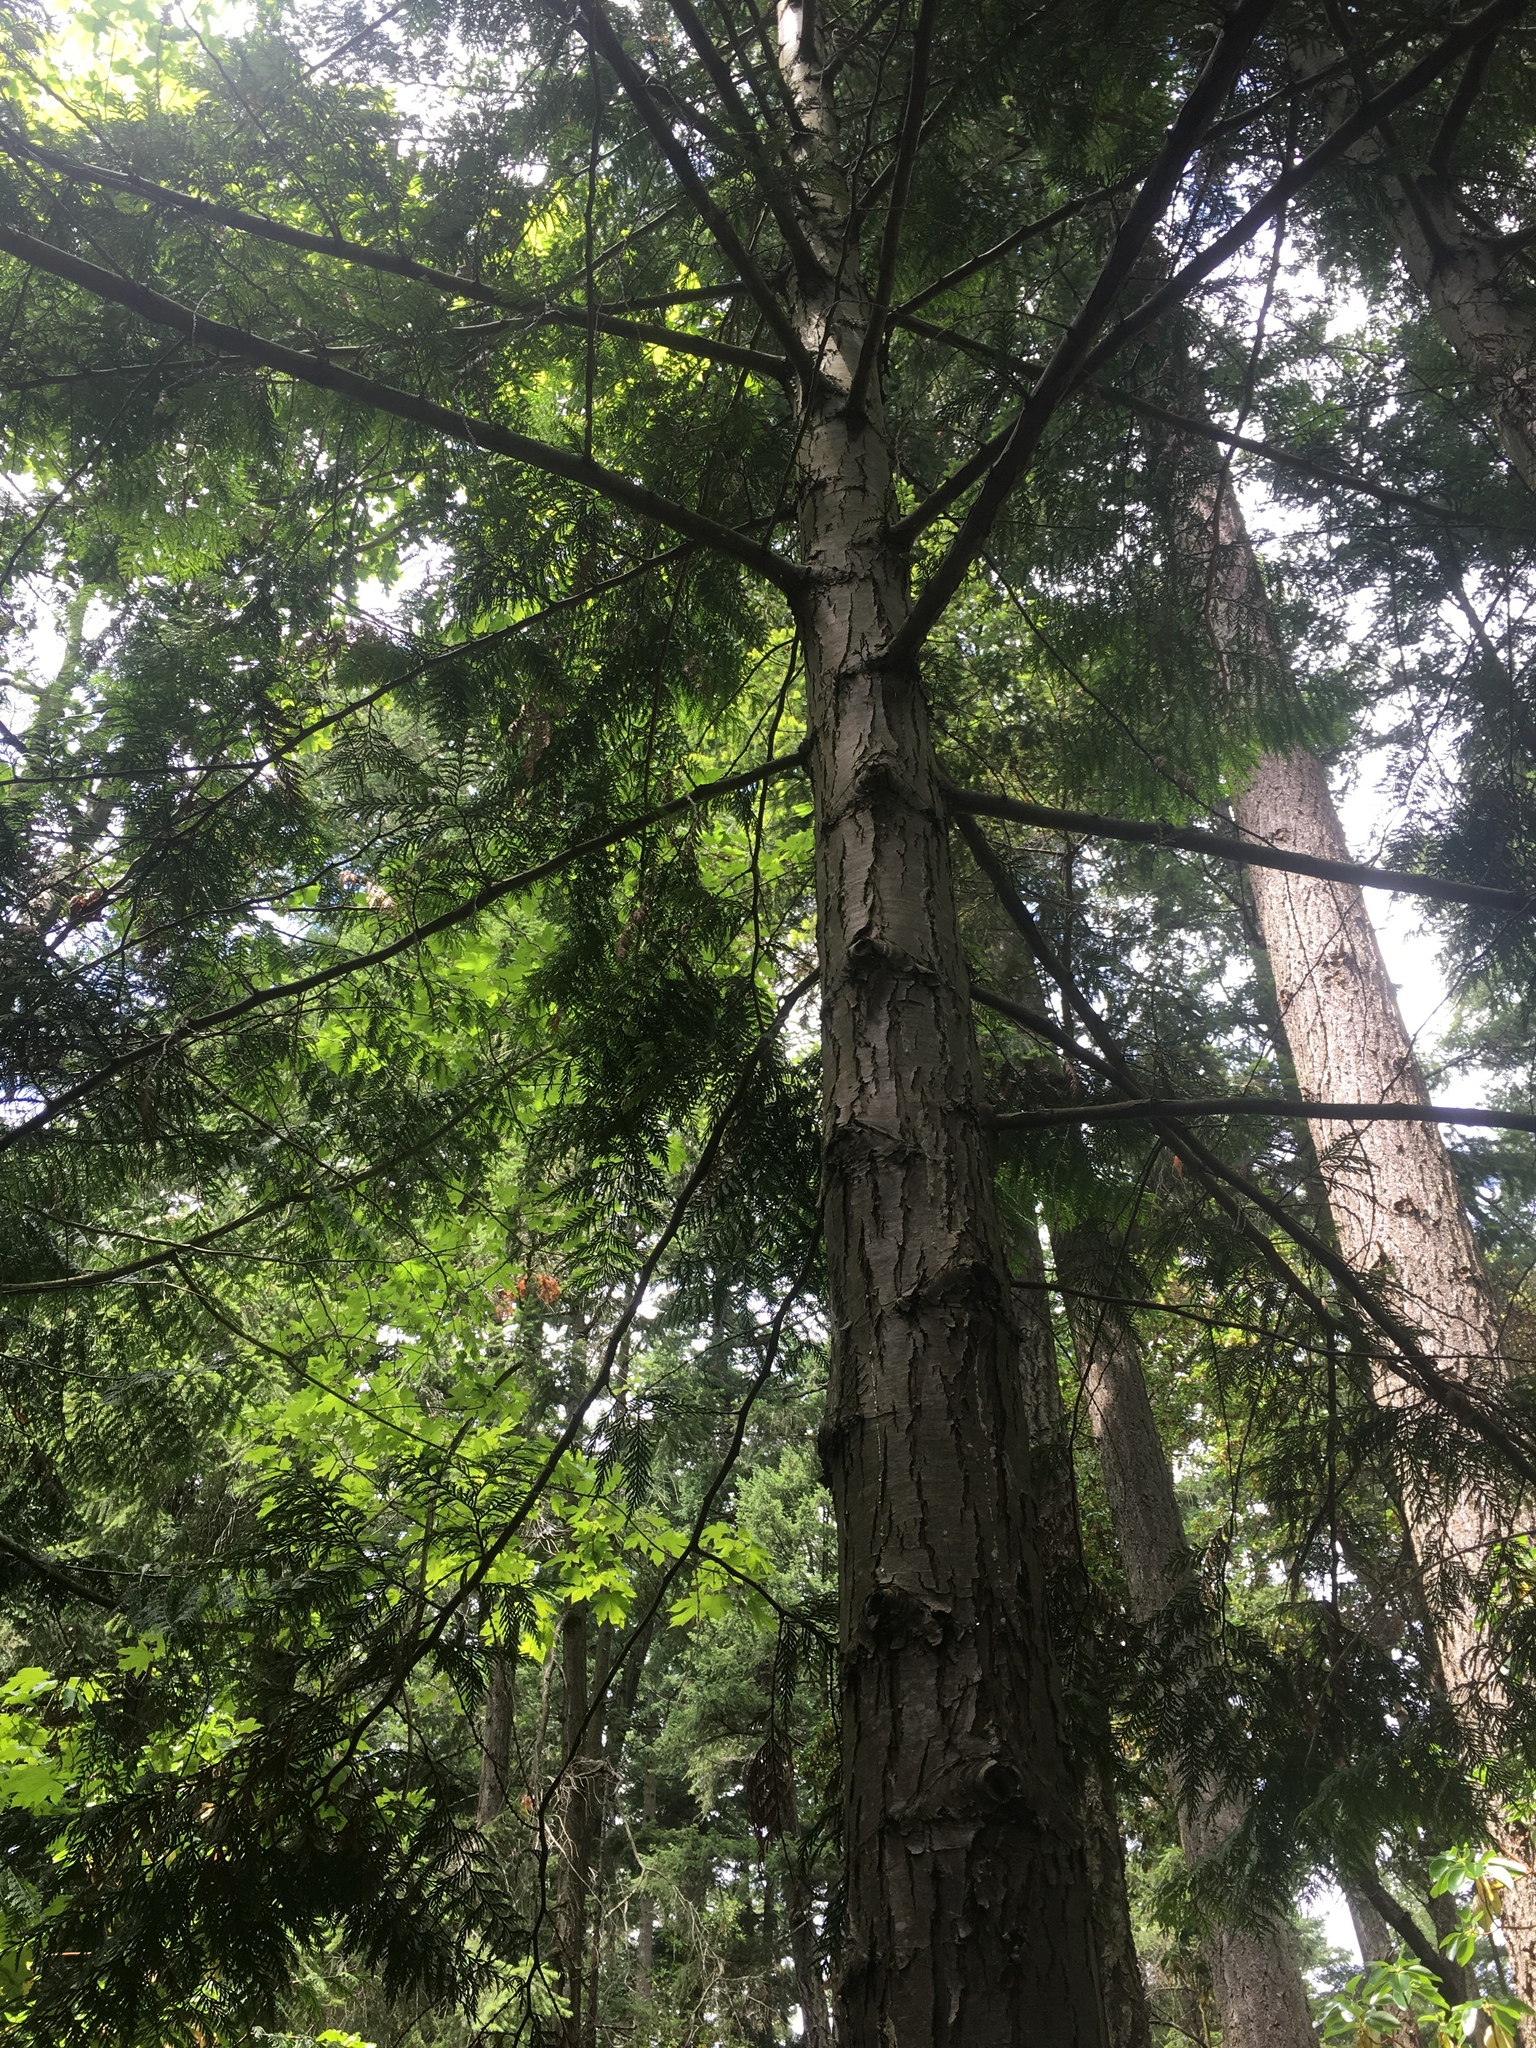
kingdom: Plantae
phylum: Tracheophyta
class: Pinopsida
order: Pinales
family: Cupressaceae
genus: Thuja
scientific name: Thuja plicata
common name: Western red-cedar
